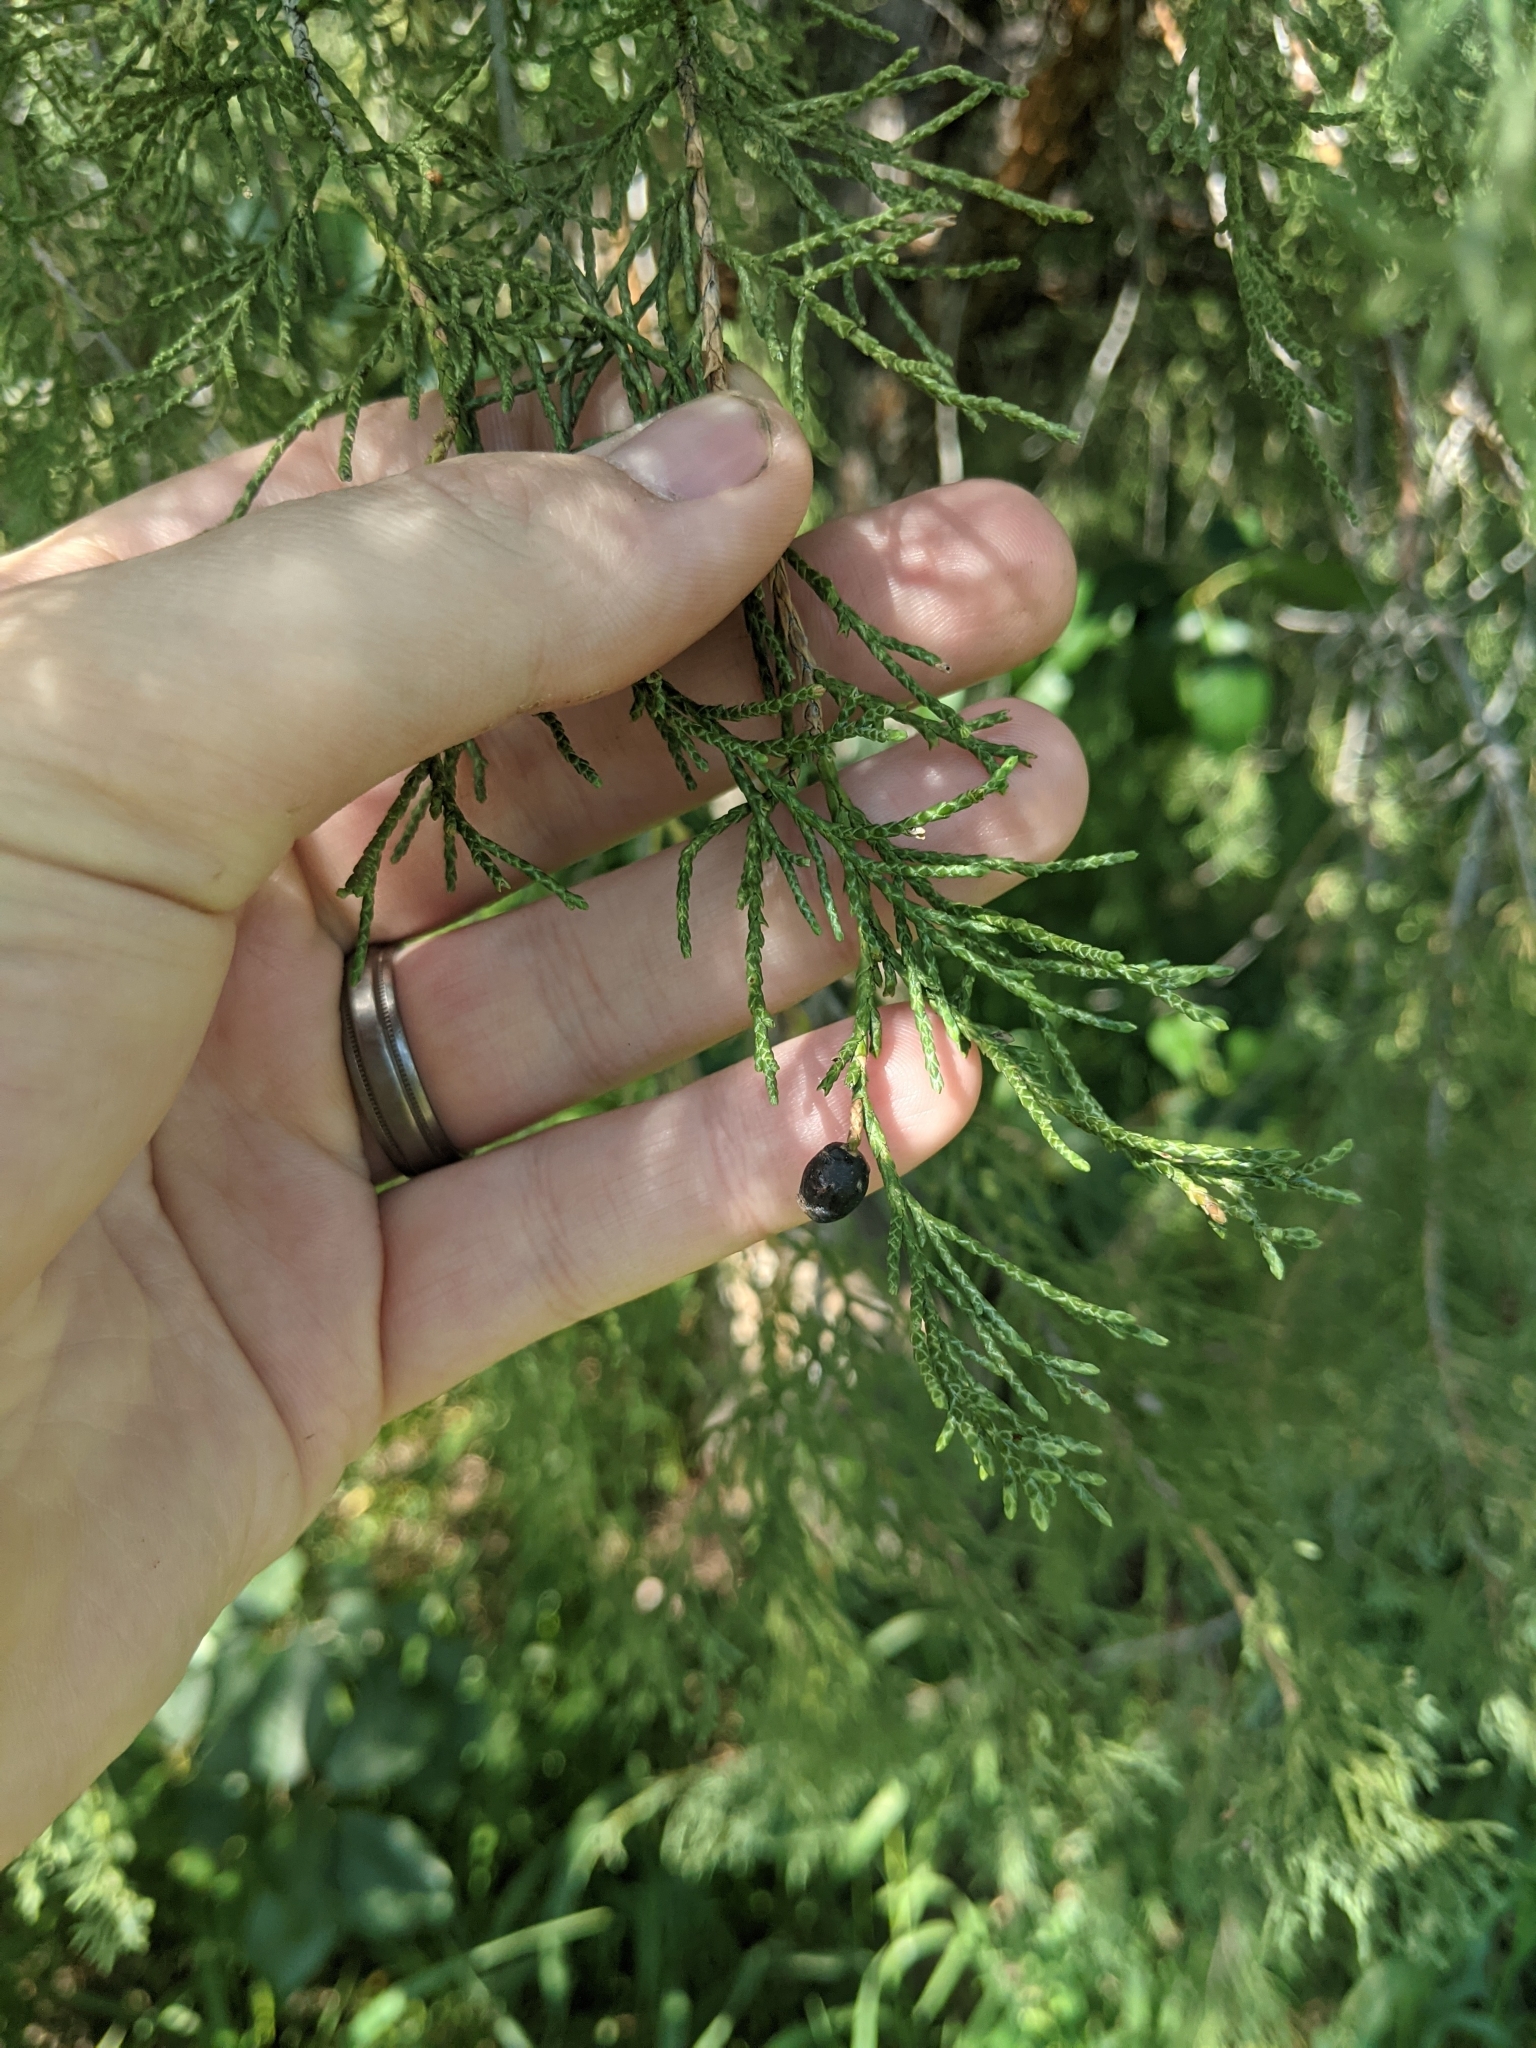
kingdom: Plantae
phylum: Tracheophyta
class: Pinopsida
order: Pinales
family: Cupressaceae
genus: Juniperus
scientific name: Juniperus scopulorum
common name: Rocky mountain juniper
